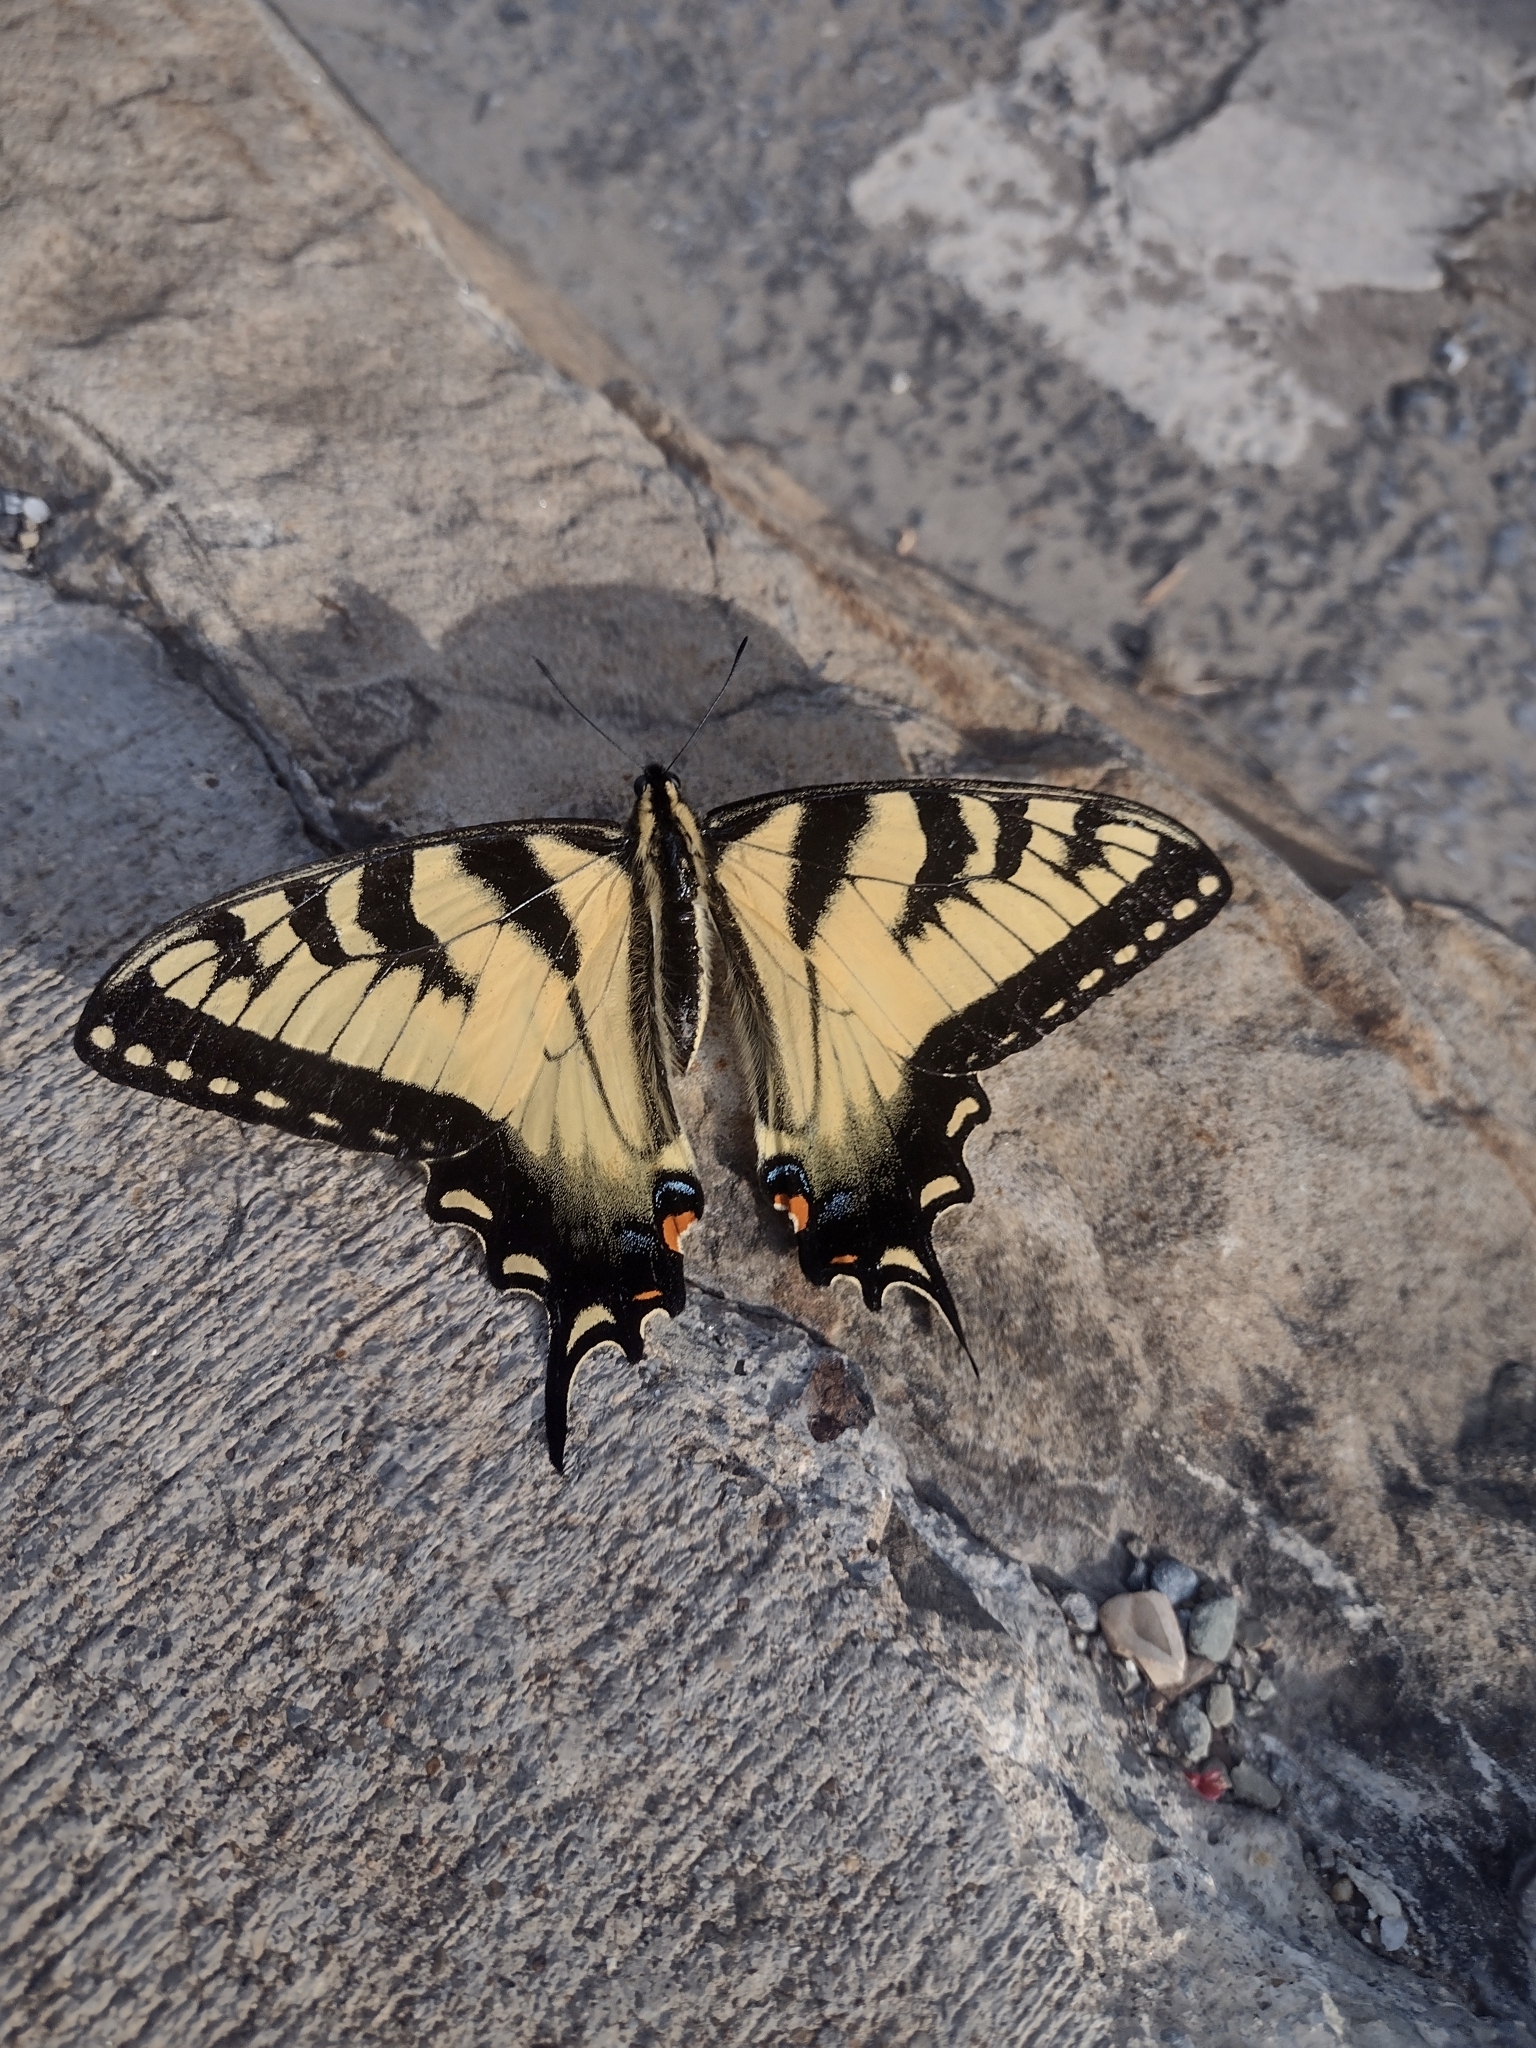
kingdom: Animalia
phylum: Arthropoda
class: Insecta
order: Lepidoptera
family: Papilionidae
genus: Papilio
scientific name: Papilio glaucus
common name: Tiger swallowtail
